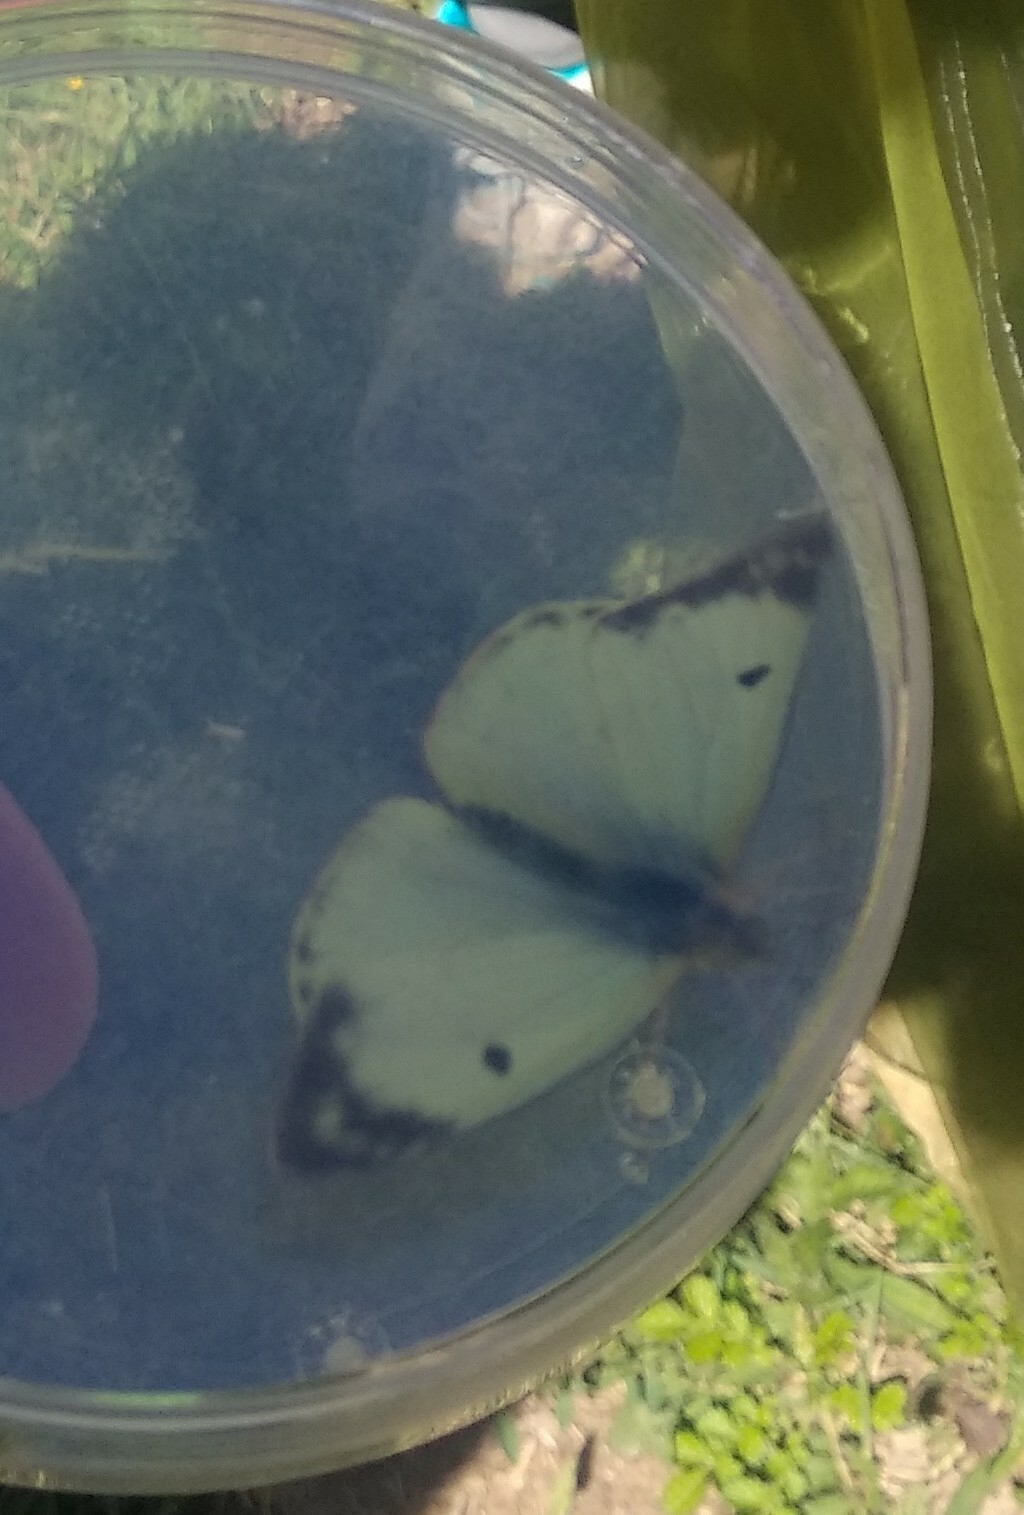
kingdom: Animalia
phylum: Arthropoda
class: Insecta
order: Lepidoptera
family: Pieridae
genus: Colias
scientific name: Colias alfacariensis
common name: Berger's clouded yellow
